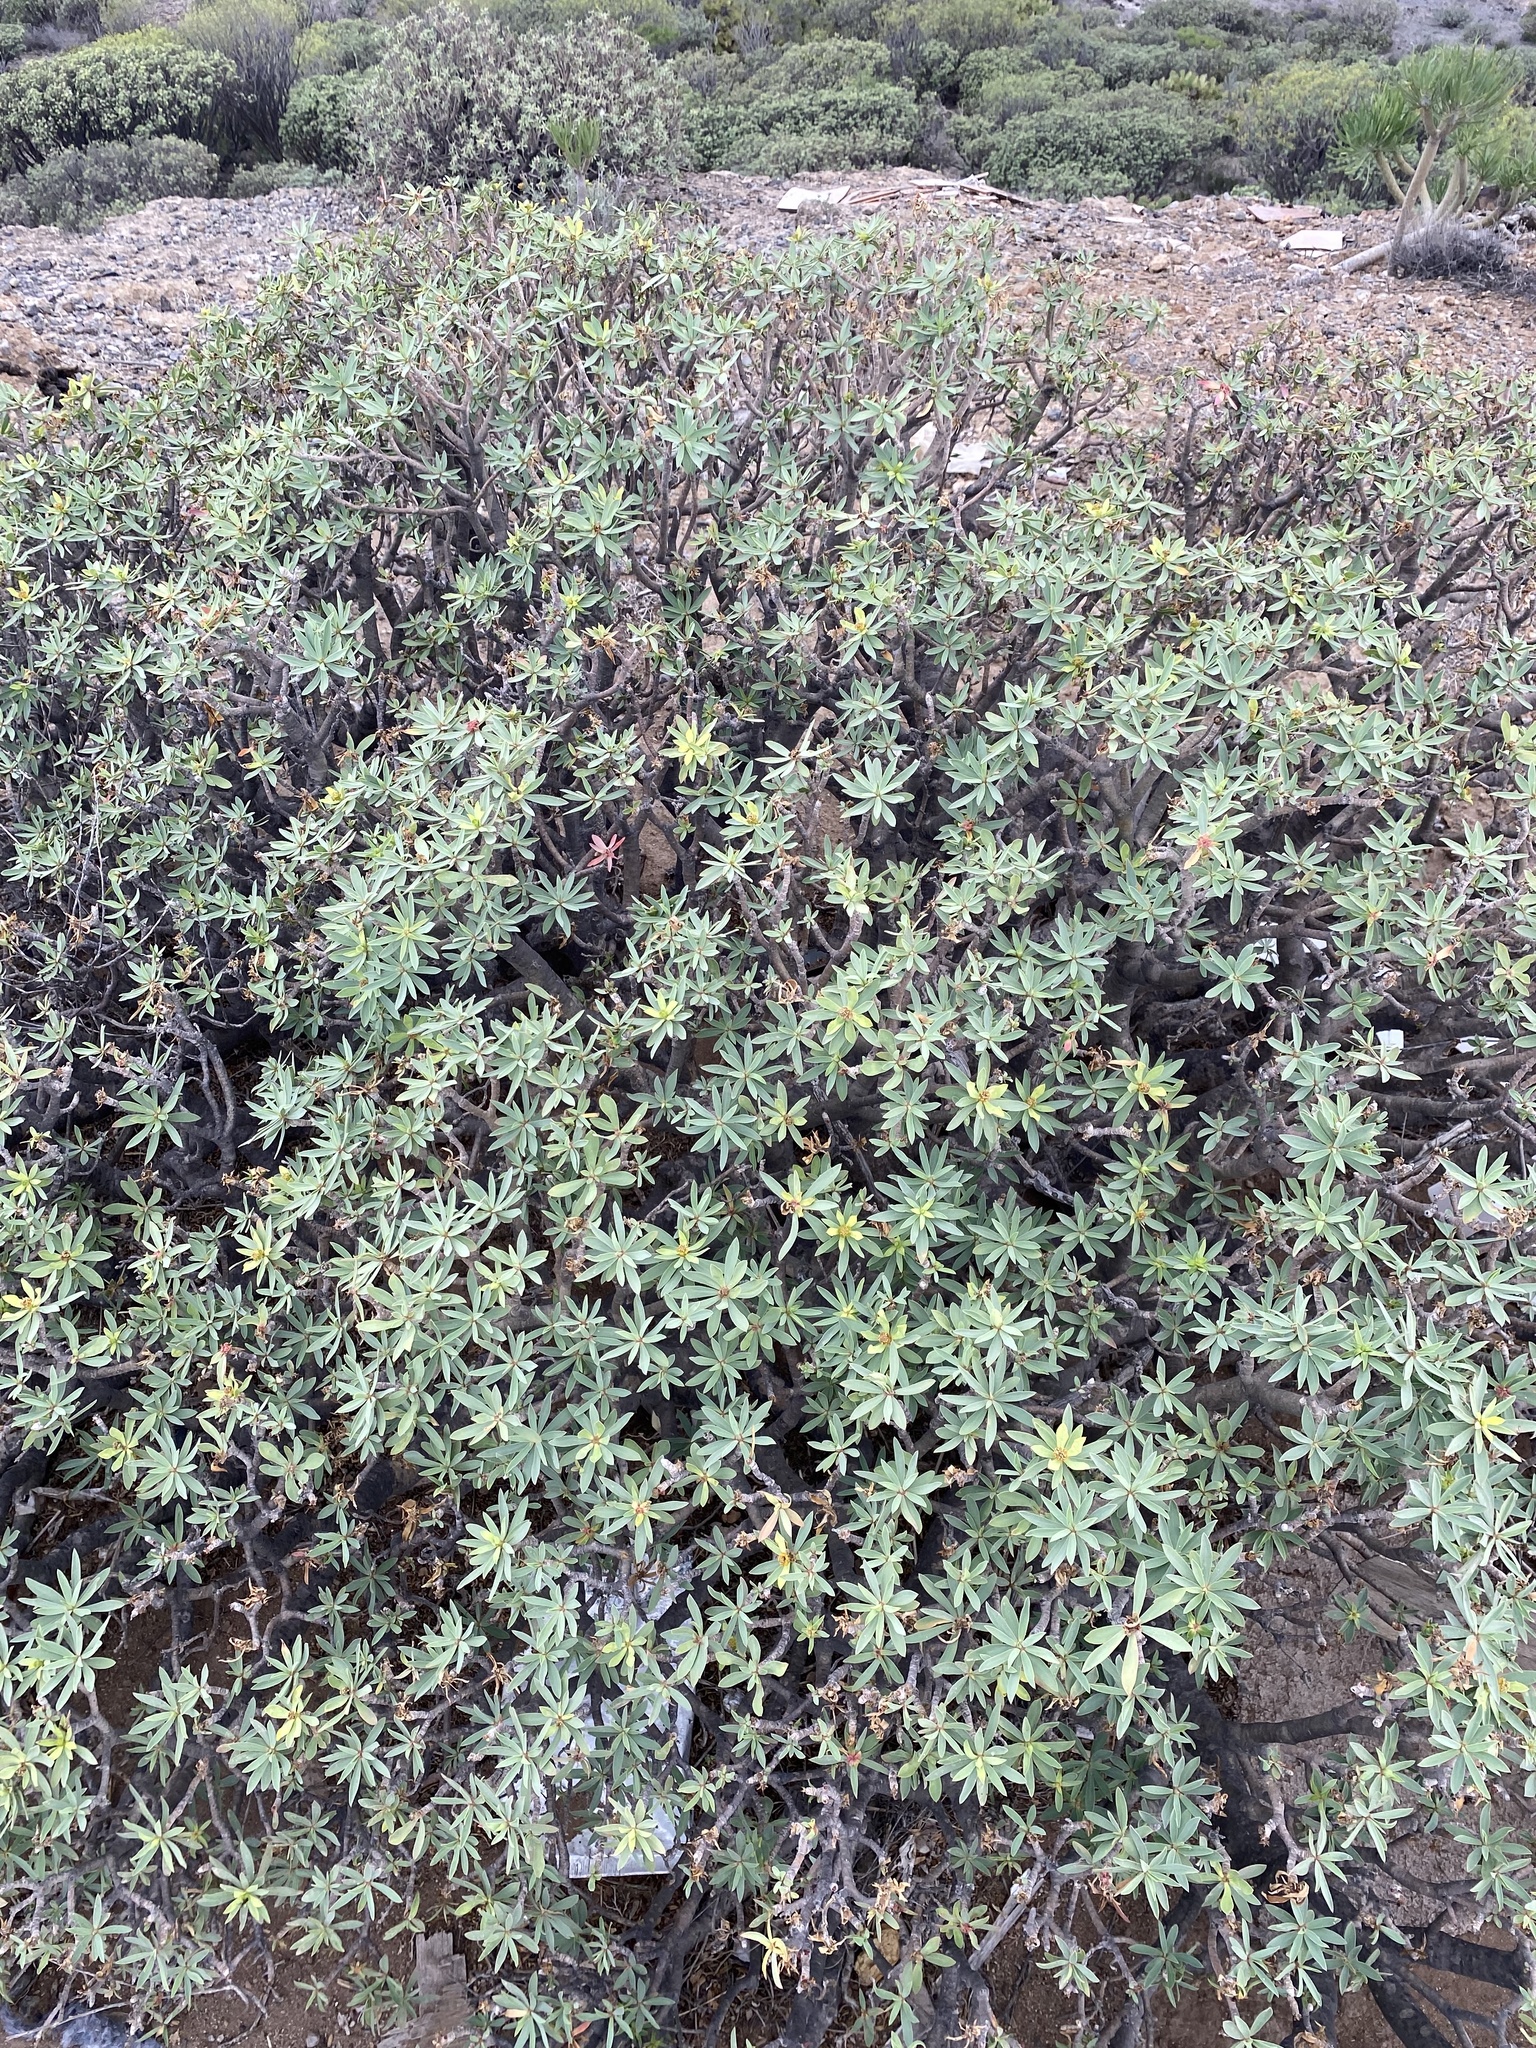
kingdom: Plantae
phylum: Tracheophyta
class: Magnoliopsida
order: Malpighiales
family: Euphorbiaceae
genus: Euphorbia
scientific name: Euphorbia balsamifera
